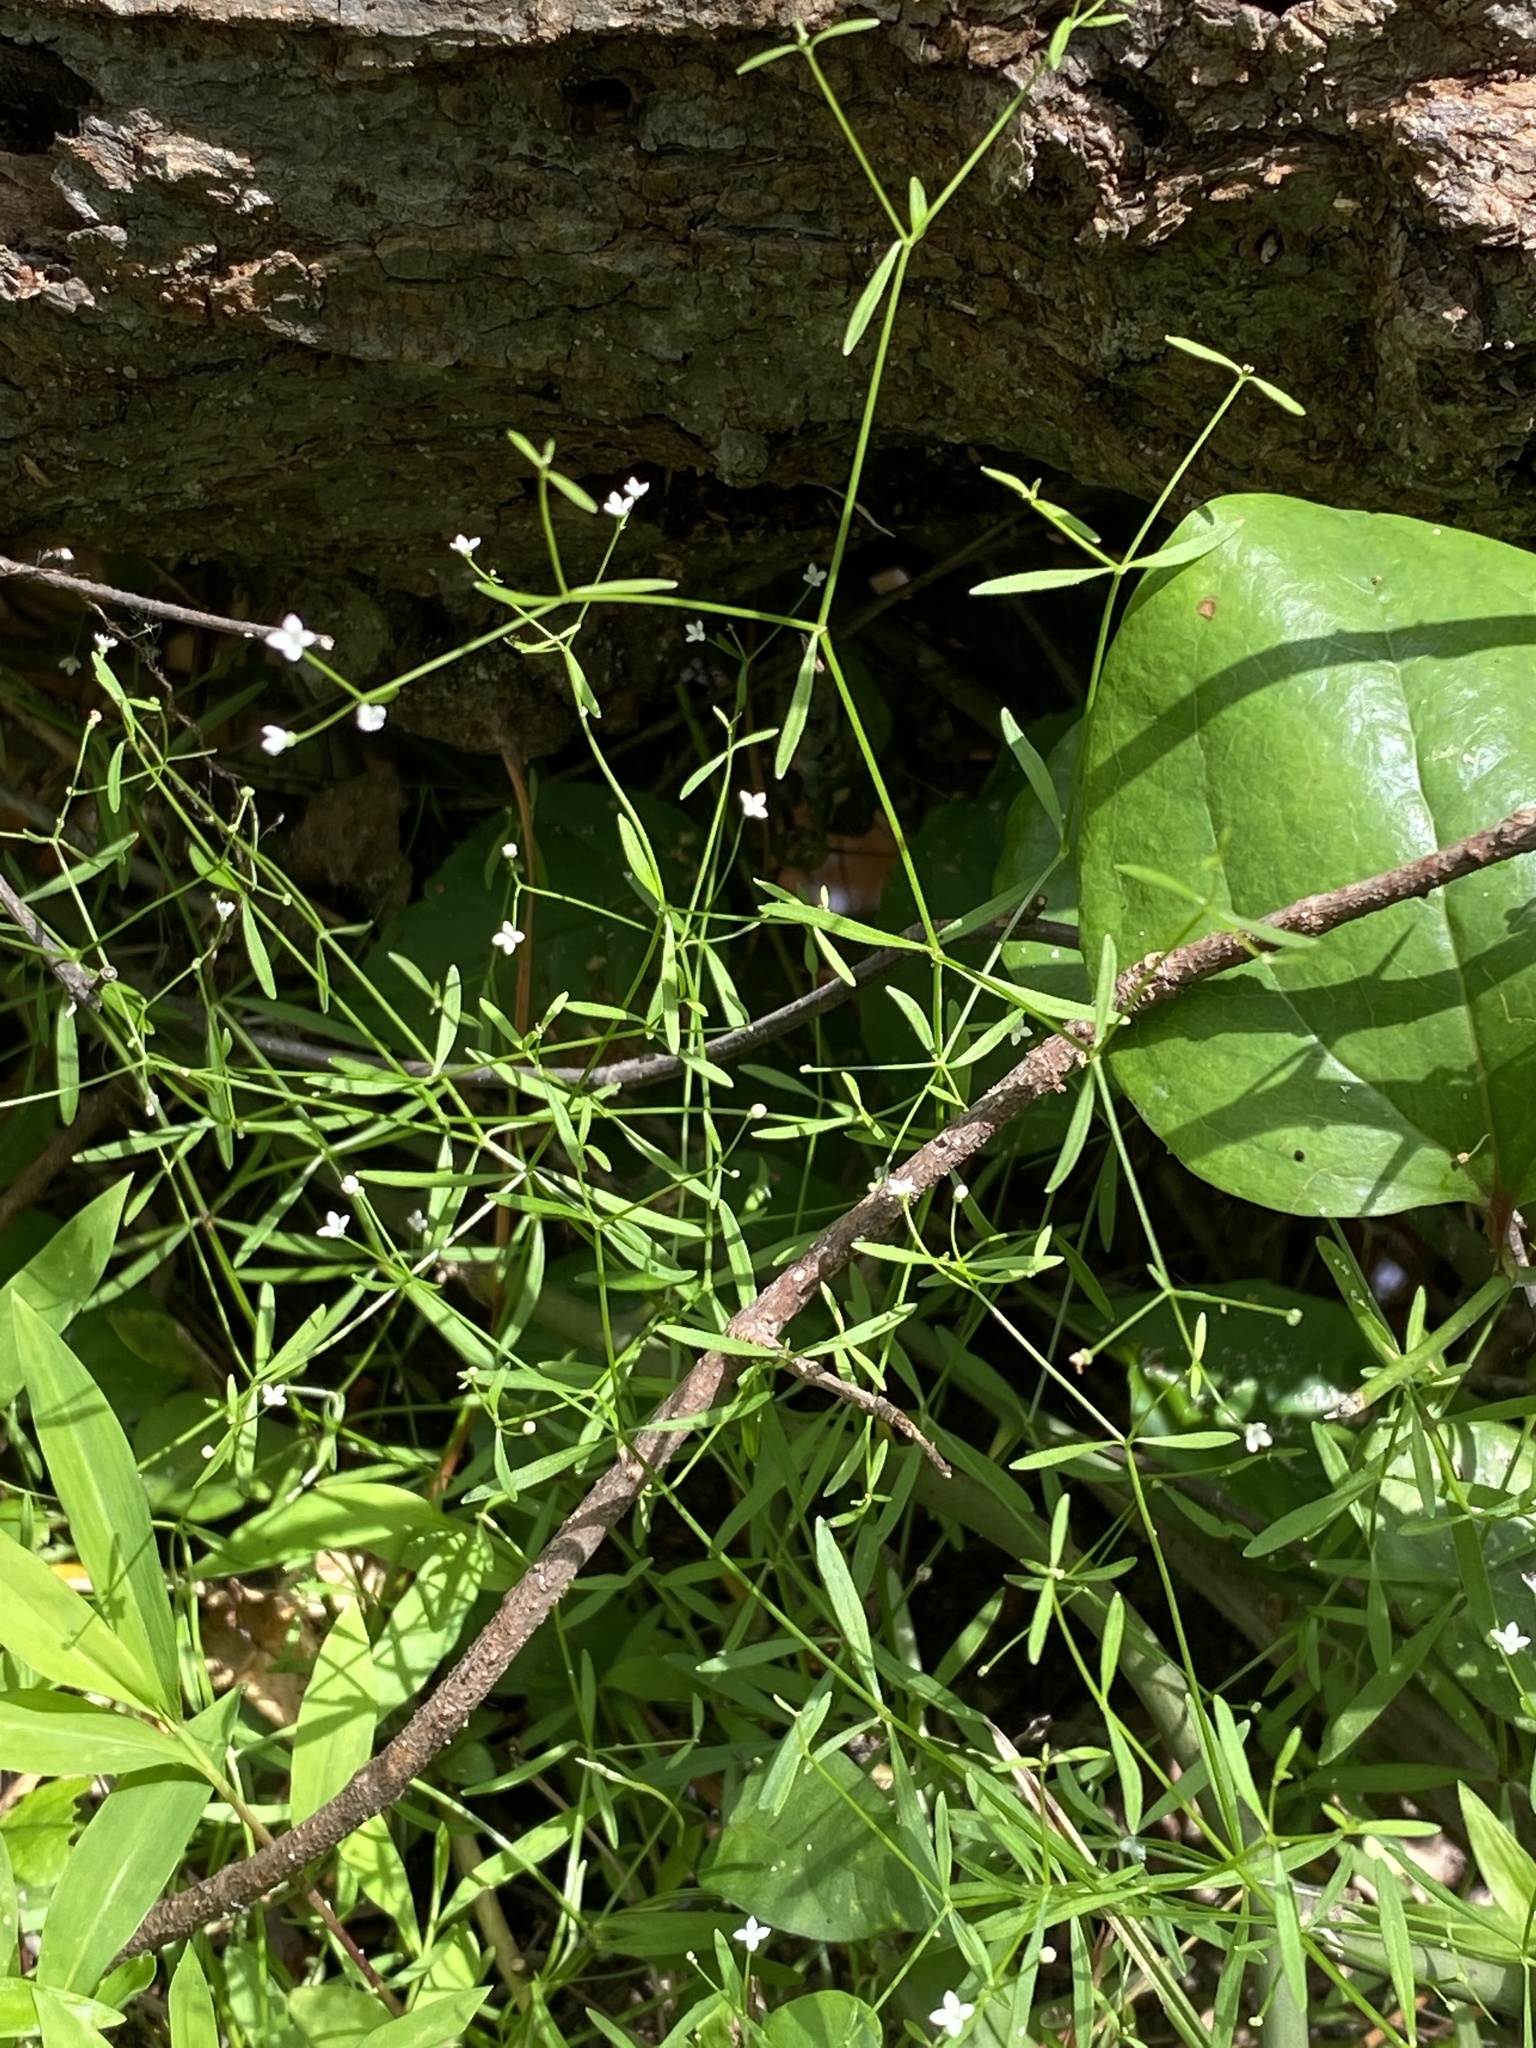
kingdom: Plantae
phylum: Tracheophyta
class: Magnoliopsida
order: Gentianales
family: Rubiaceae
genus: Galium
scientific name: Galium obtusum
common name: Blunt-leaved bedstraw
